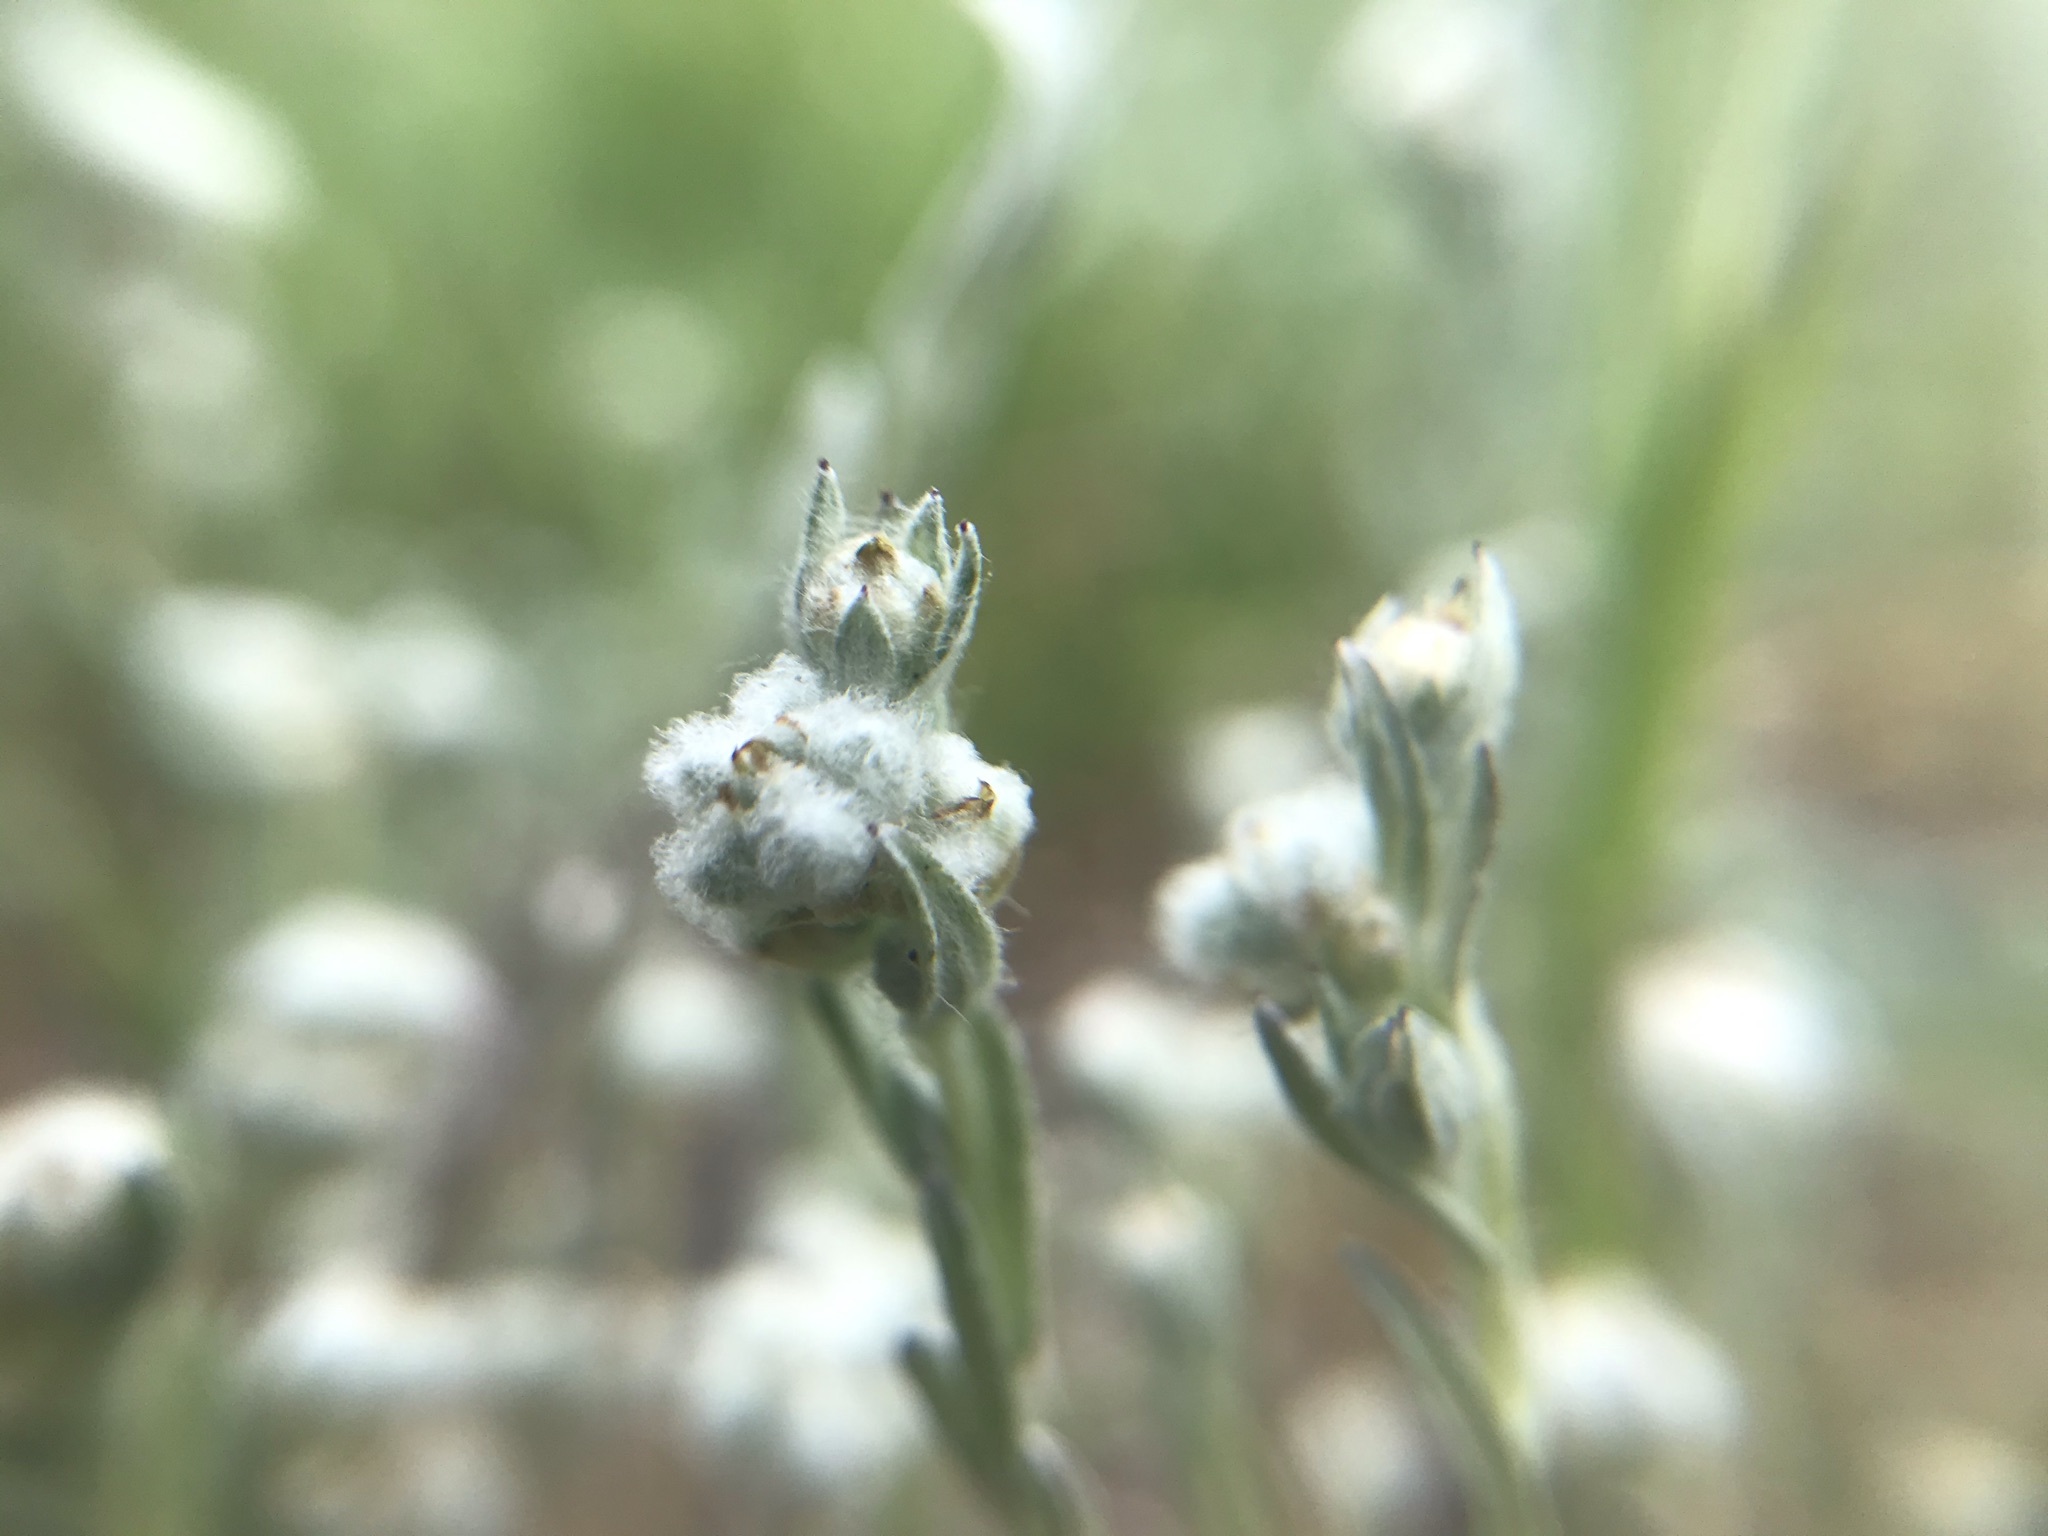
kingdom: Plantae
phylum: Tracheophyta
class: Magnoliopsida
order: Asterales
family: Asteraceae
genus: Bombycilaena
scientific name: Bombycilaena californica
